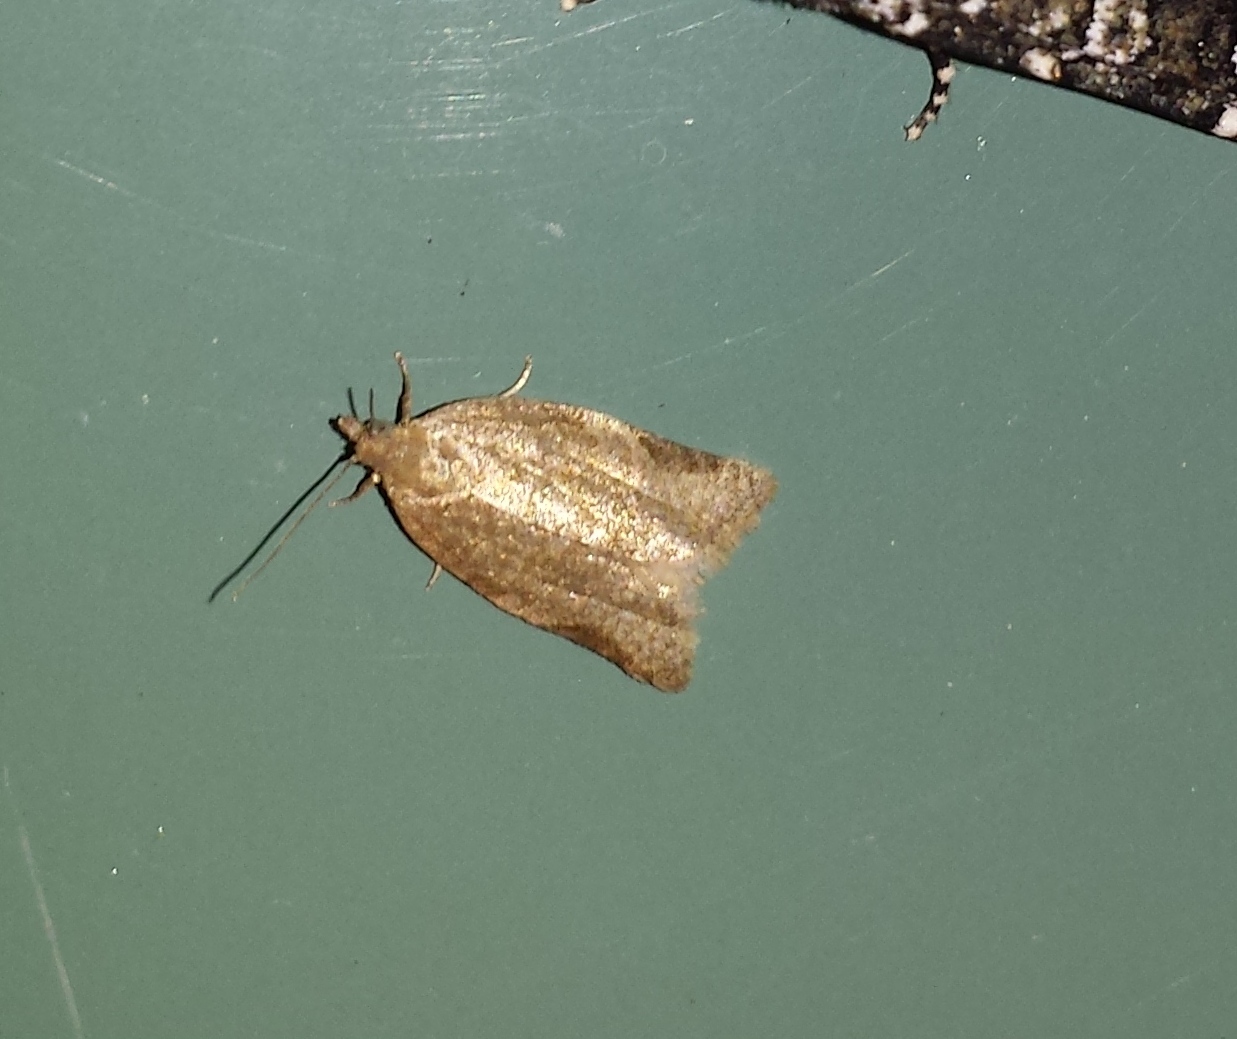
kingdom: Animalia
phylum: Arthropoda
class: Insecta
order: Lepidoptera
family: Tortricidae
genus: Clepsis
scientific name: Clepsis virescana
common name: Greenish apple moth
